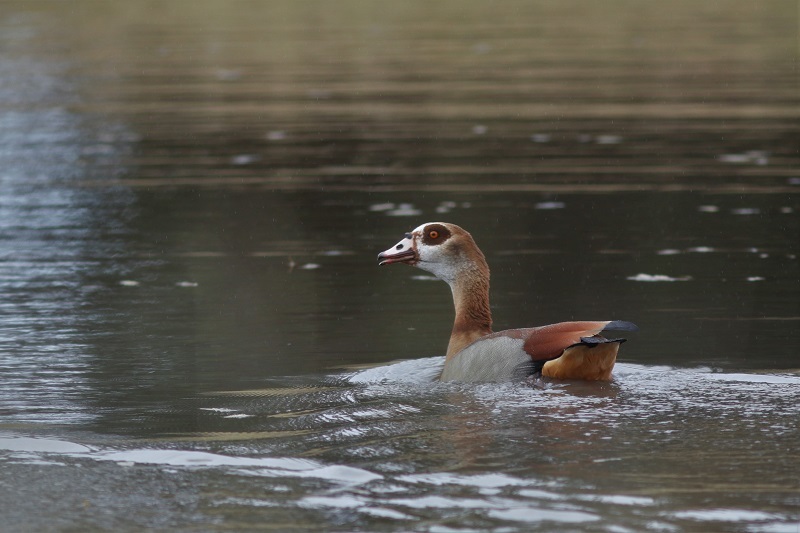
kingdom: Animalia
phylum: Chordata
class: Aves
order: Anseriformes
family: Anatidae
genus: Alopochen
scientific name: Alopochen aegyptiaca
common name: Egyptian goose
